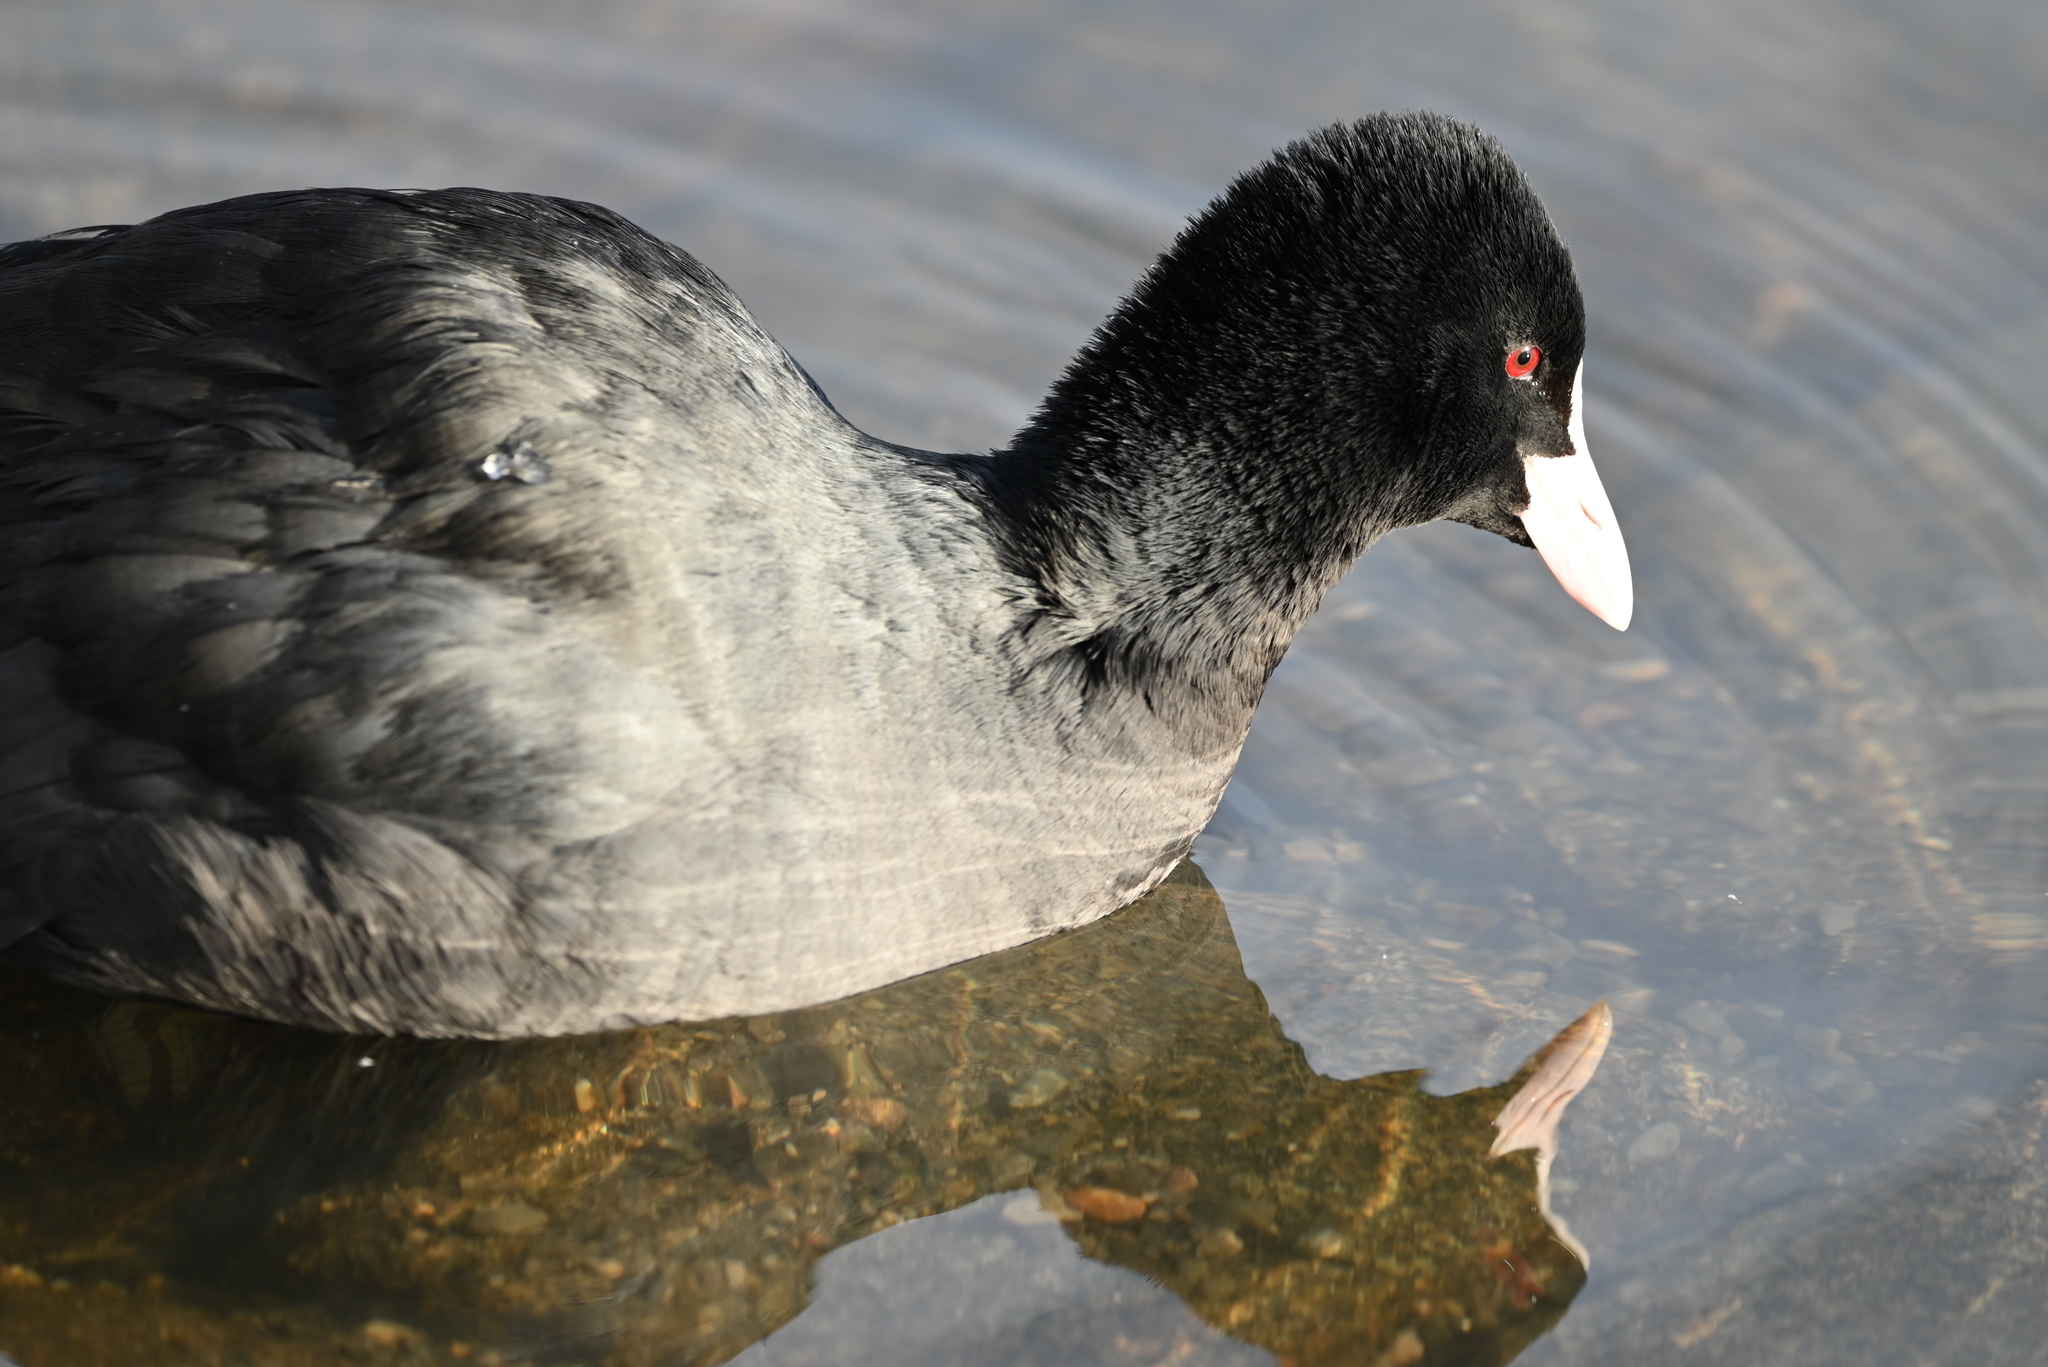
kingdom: Animalia
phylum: Chordata
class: Aves
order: Gruiformes
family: Rallidae
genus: Fulica
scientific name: Fulica atra
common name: Eurasian coot
